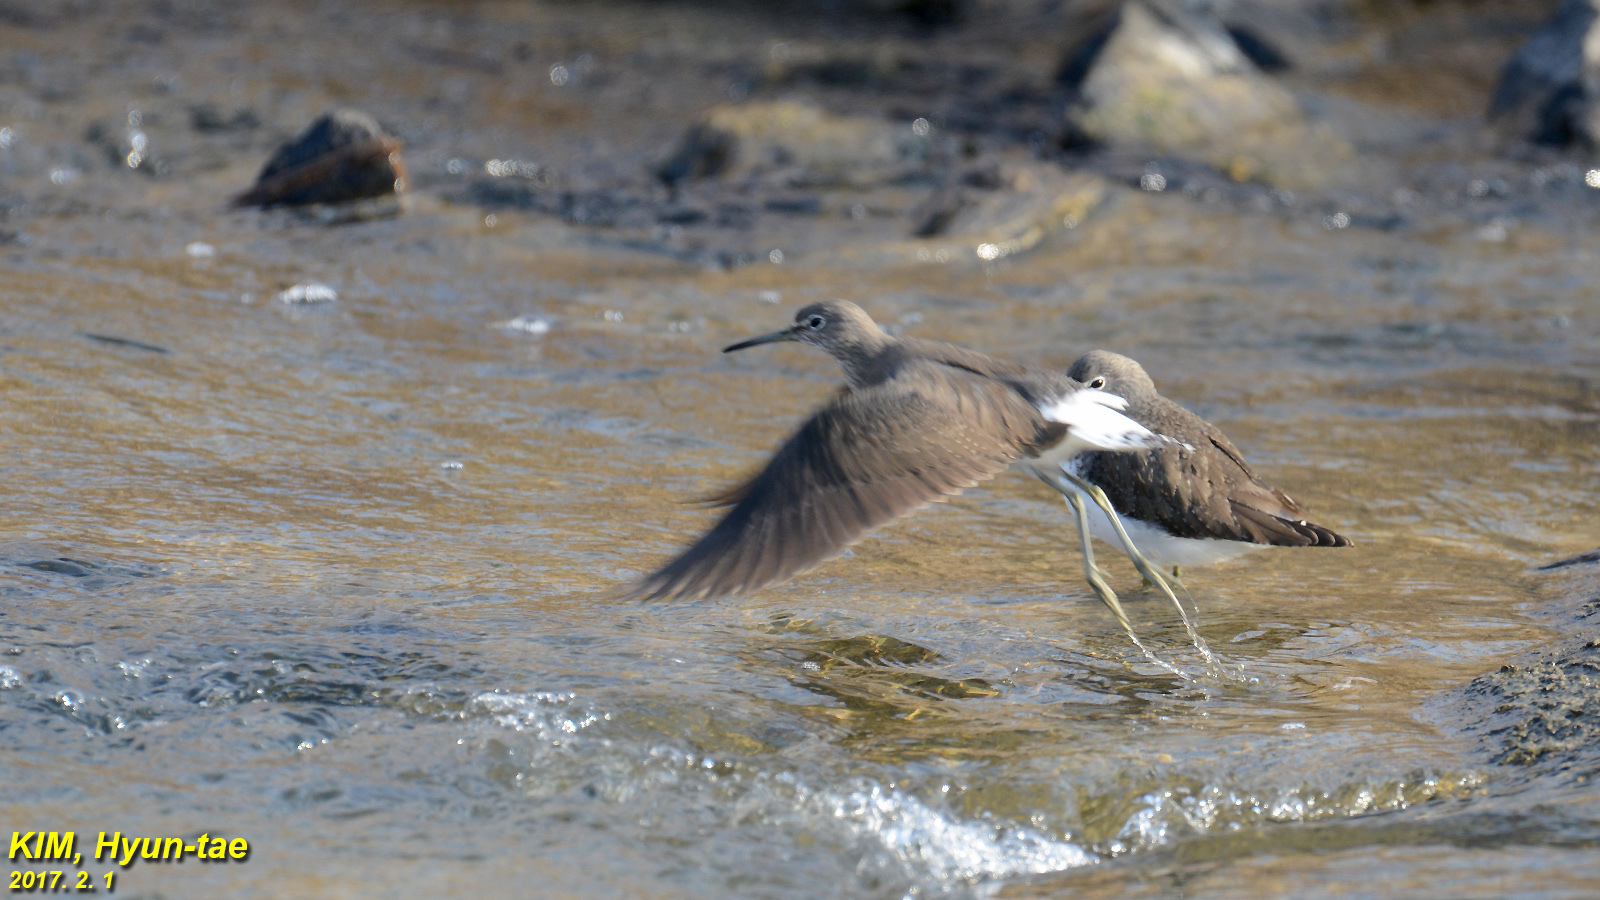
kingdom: Animalia
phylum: Chordata
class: Aves
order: Charadriiformes
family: Scolopacidae
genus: Actitis
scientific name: Actitis hypoleucos
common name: Common sandpiper
